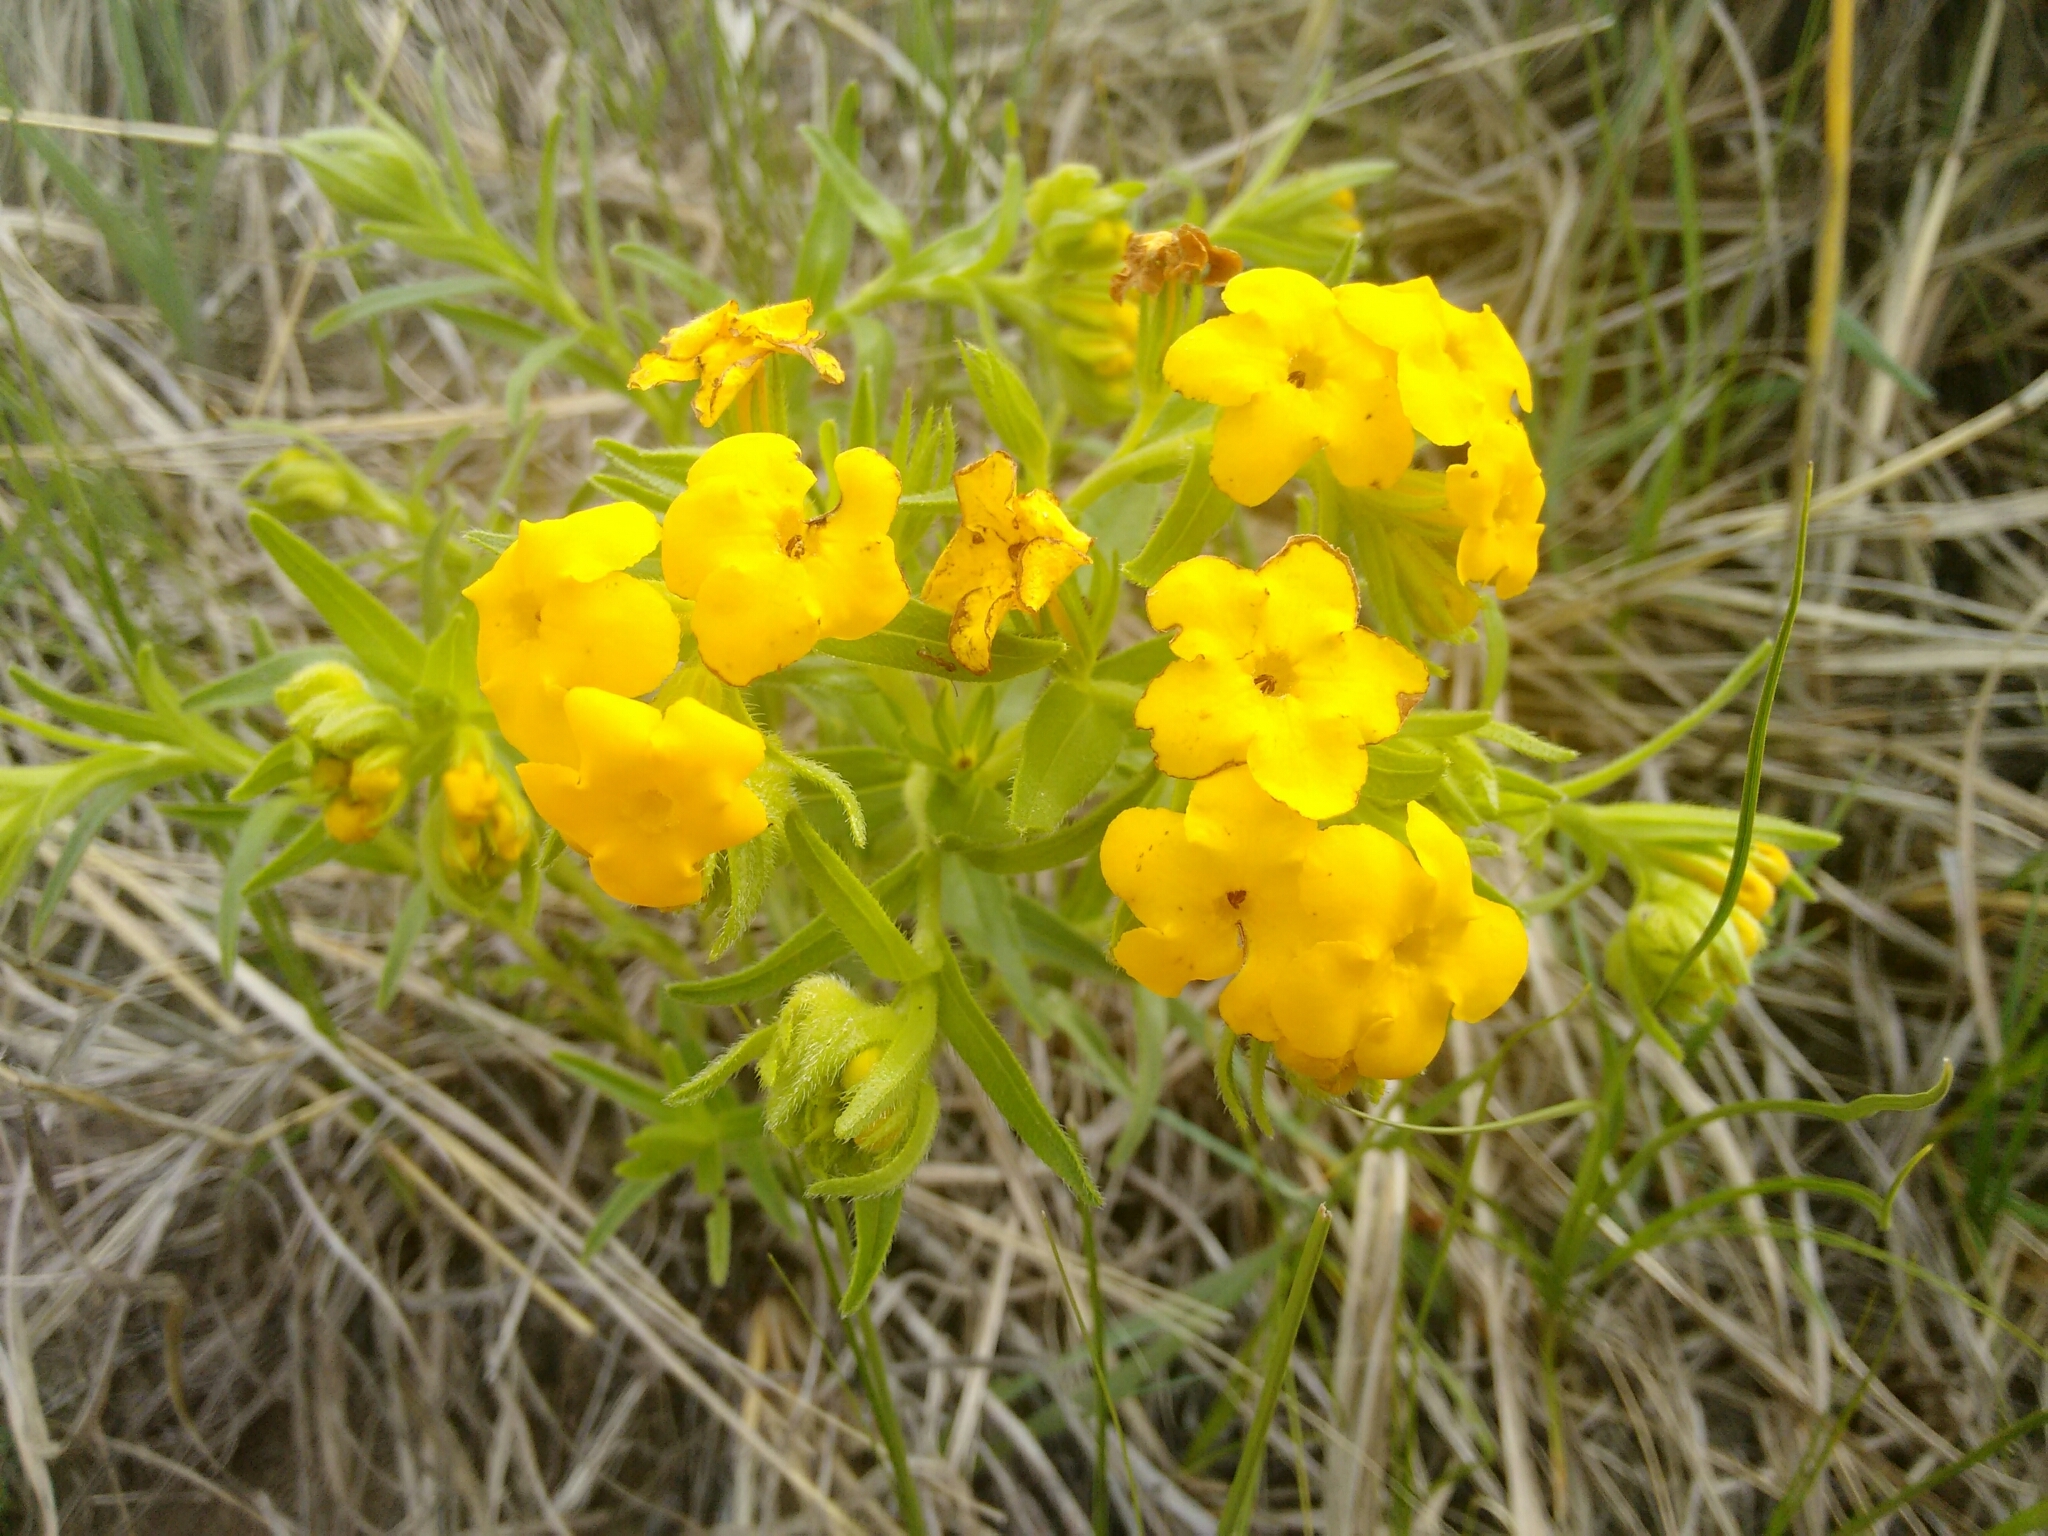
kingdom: Plantae
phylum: Tracheophyta
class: Magnoliopsida
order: Boraginales
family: Boraginaceae
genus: Lithospermum
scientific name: Lithospermum caroliniense
